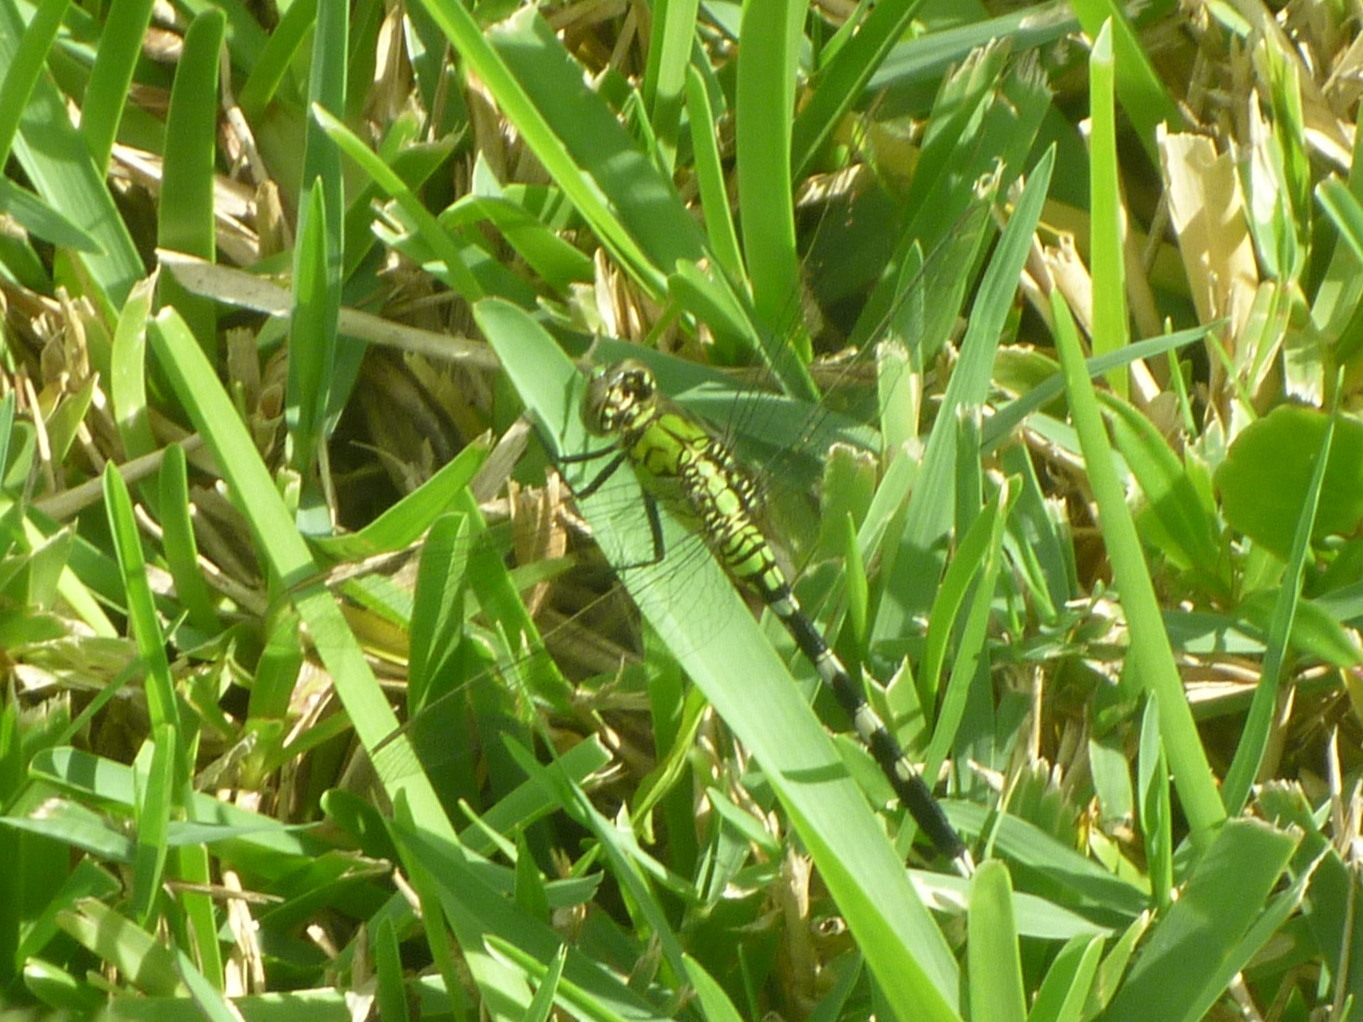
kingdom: Animalia
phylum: Arthropoda
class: Insecta
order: Odonata
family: Libellulidae
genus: Erythemis
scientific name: Erythemis simplicicollis
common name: Eastern pondhawk
